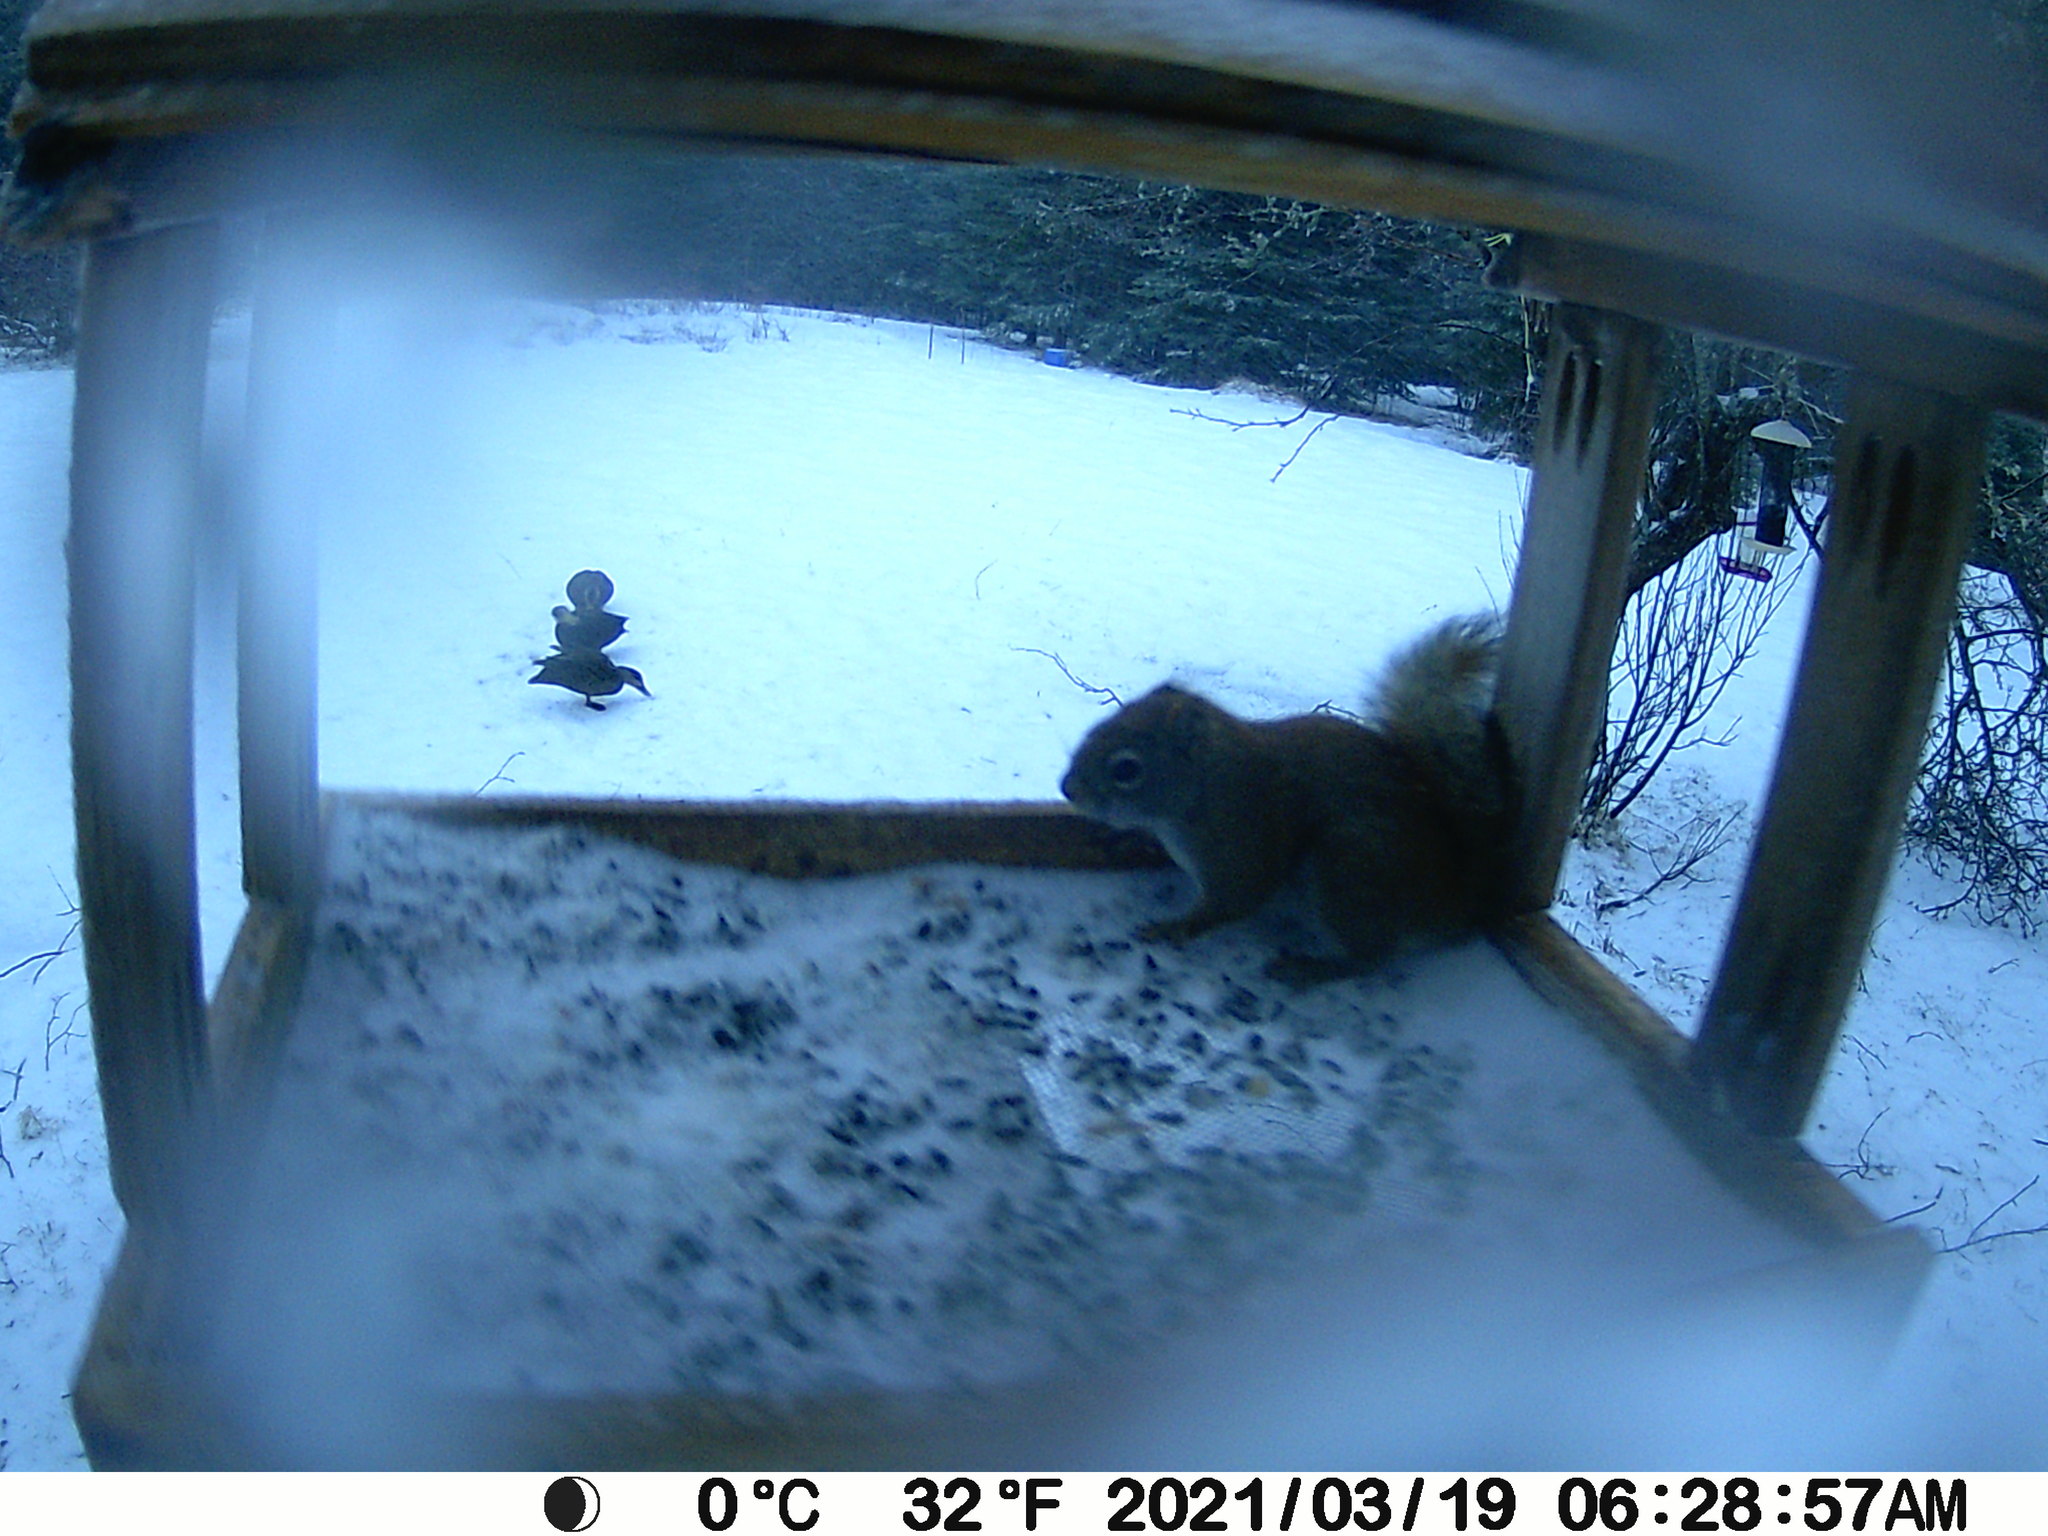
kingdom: Animalia
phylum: Chordata
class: Mammalia
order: Rodentia
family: Sciuridae
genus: Tamiasciurus
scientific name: Tamiasciurus hudsonicus
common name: Red squirrel
